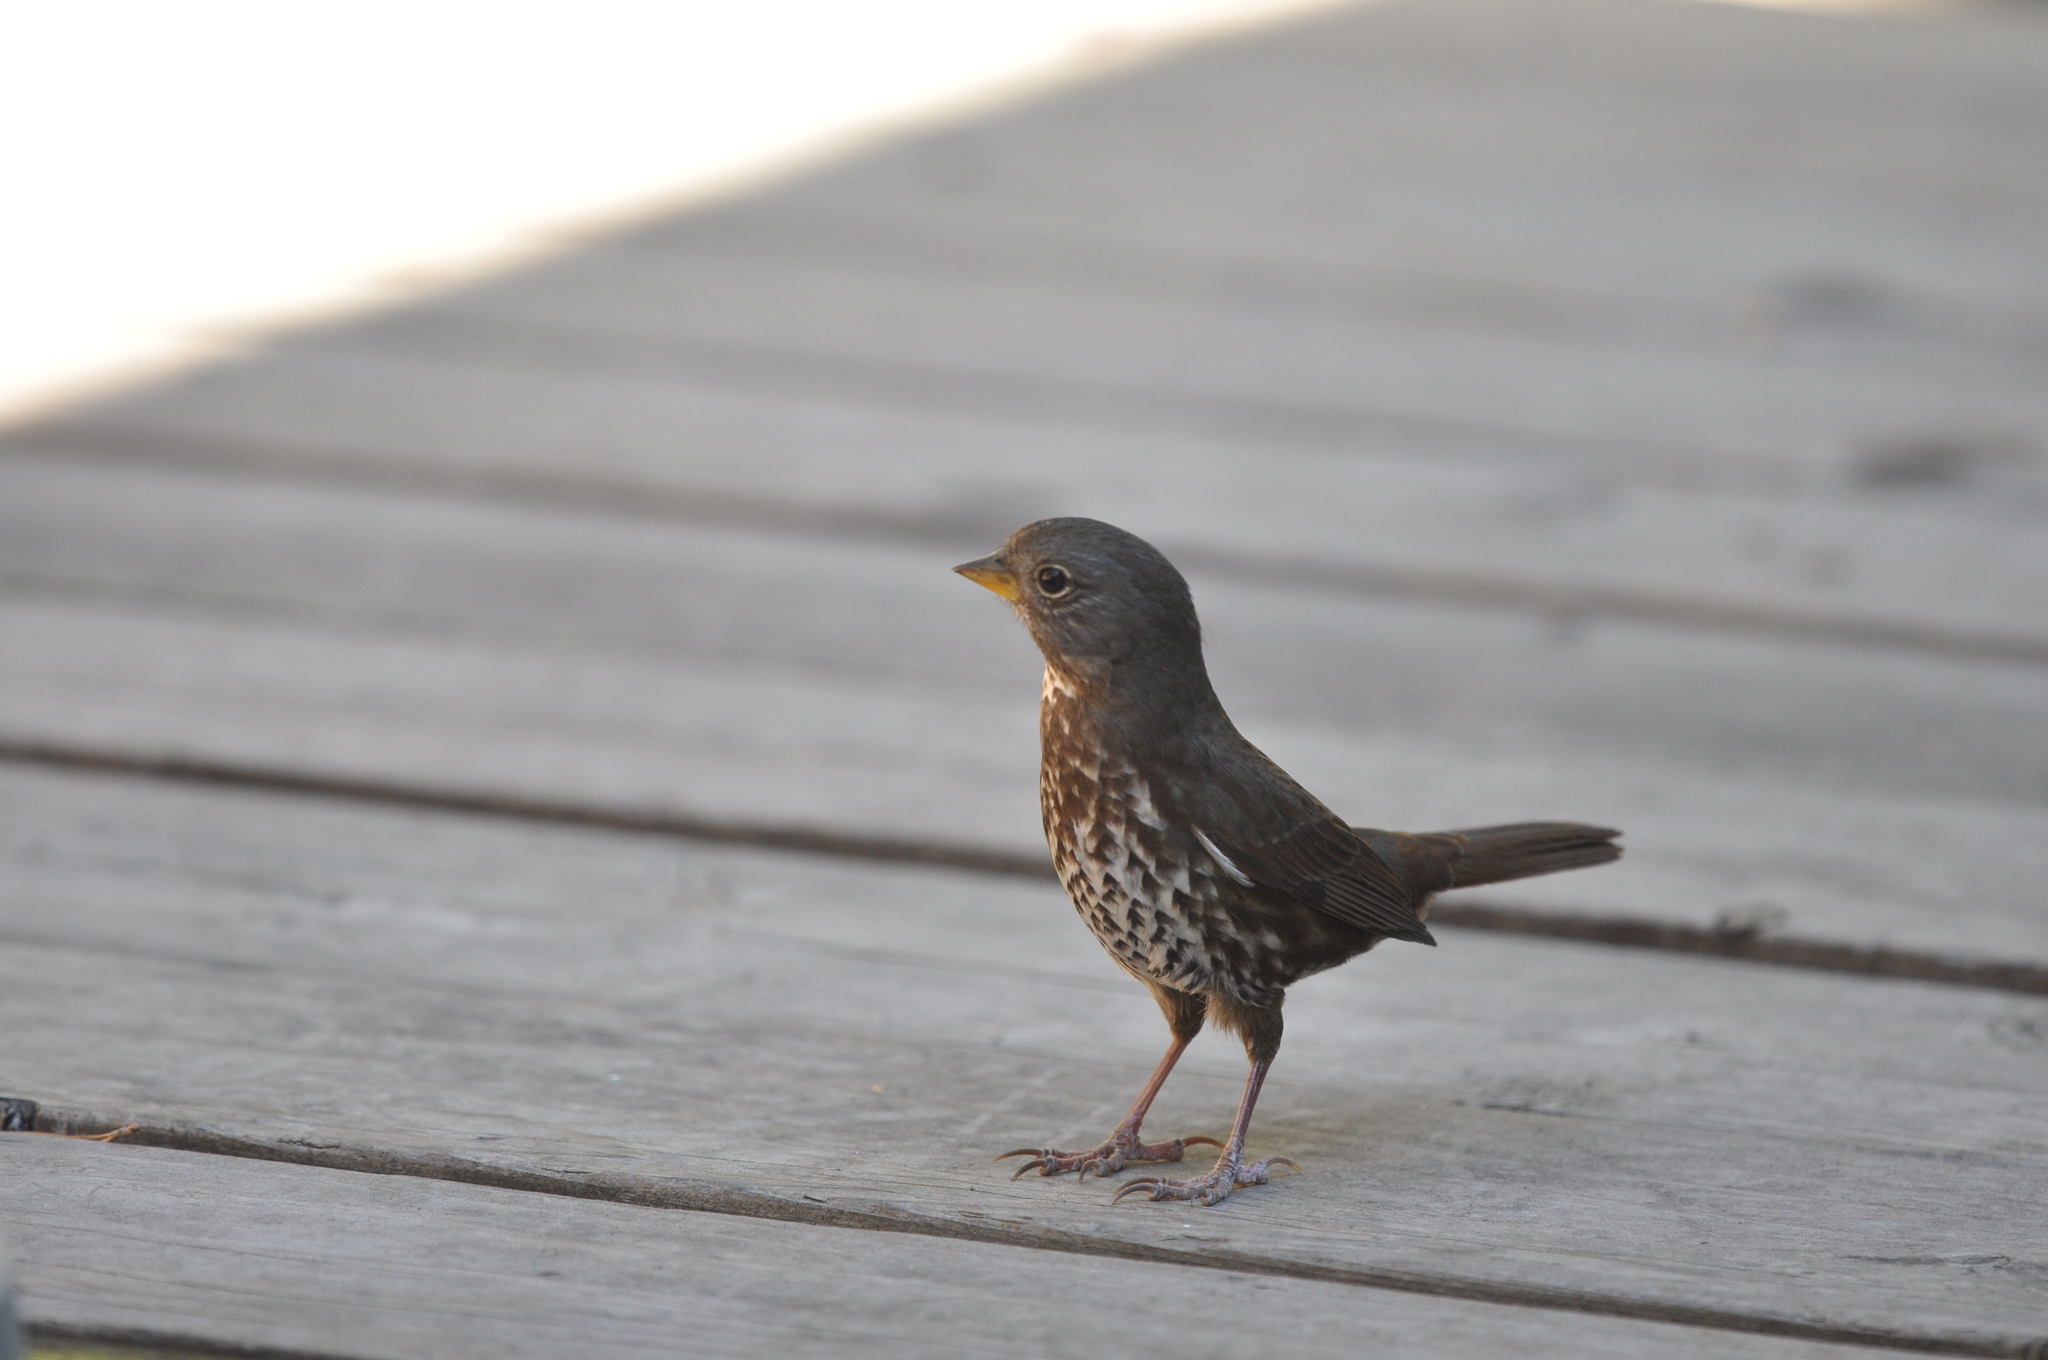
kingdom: Animalia
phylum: Chordata
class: Aves
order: Passeriformes
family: Passerellidae
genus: Passerella
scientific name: Passerella iliaca
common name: Fox sparrow
